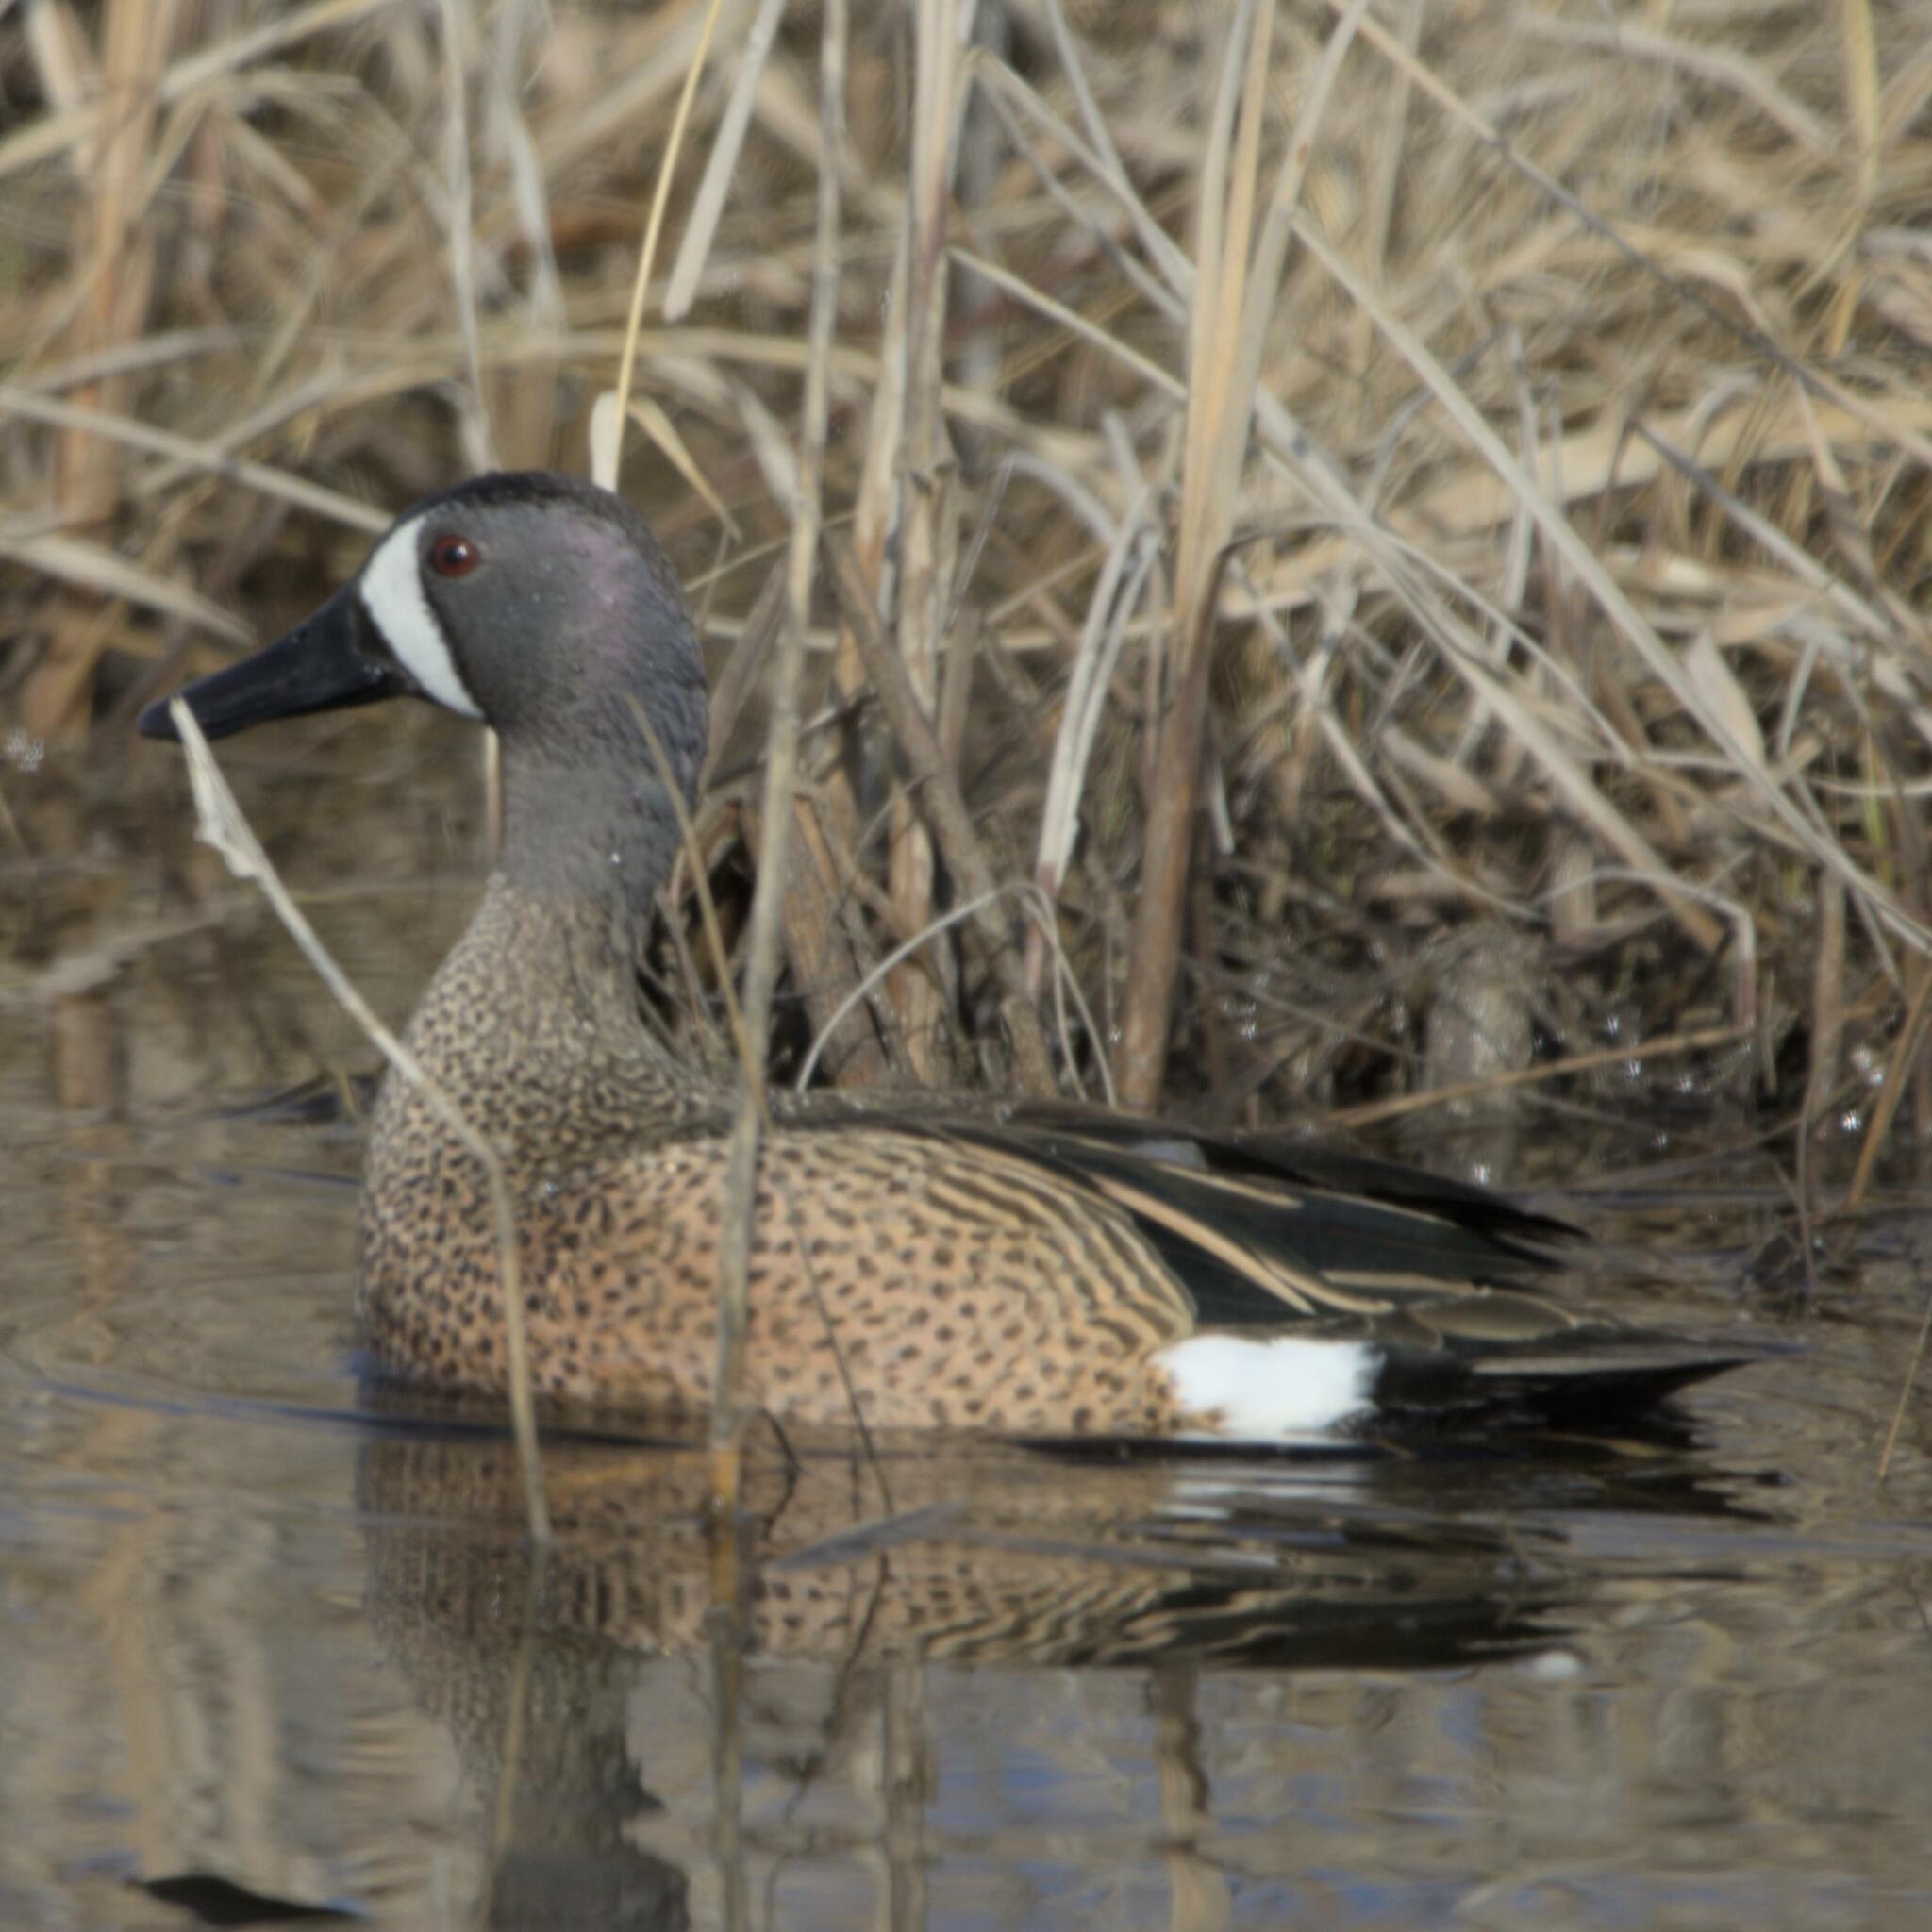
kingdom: Animalia
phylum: Chordata
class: Aves
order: Anseriformes
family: Anatidae
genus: Spatula
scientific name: Spatula discors
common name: Blue-winged teal
